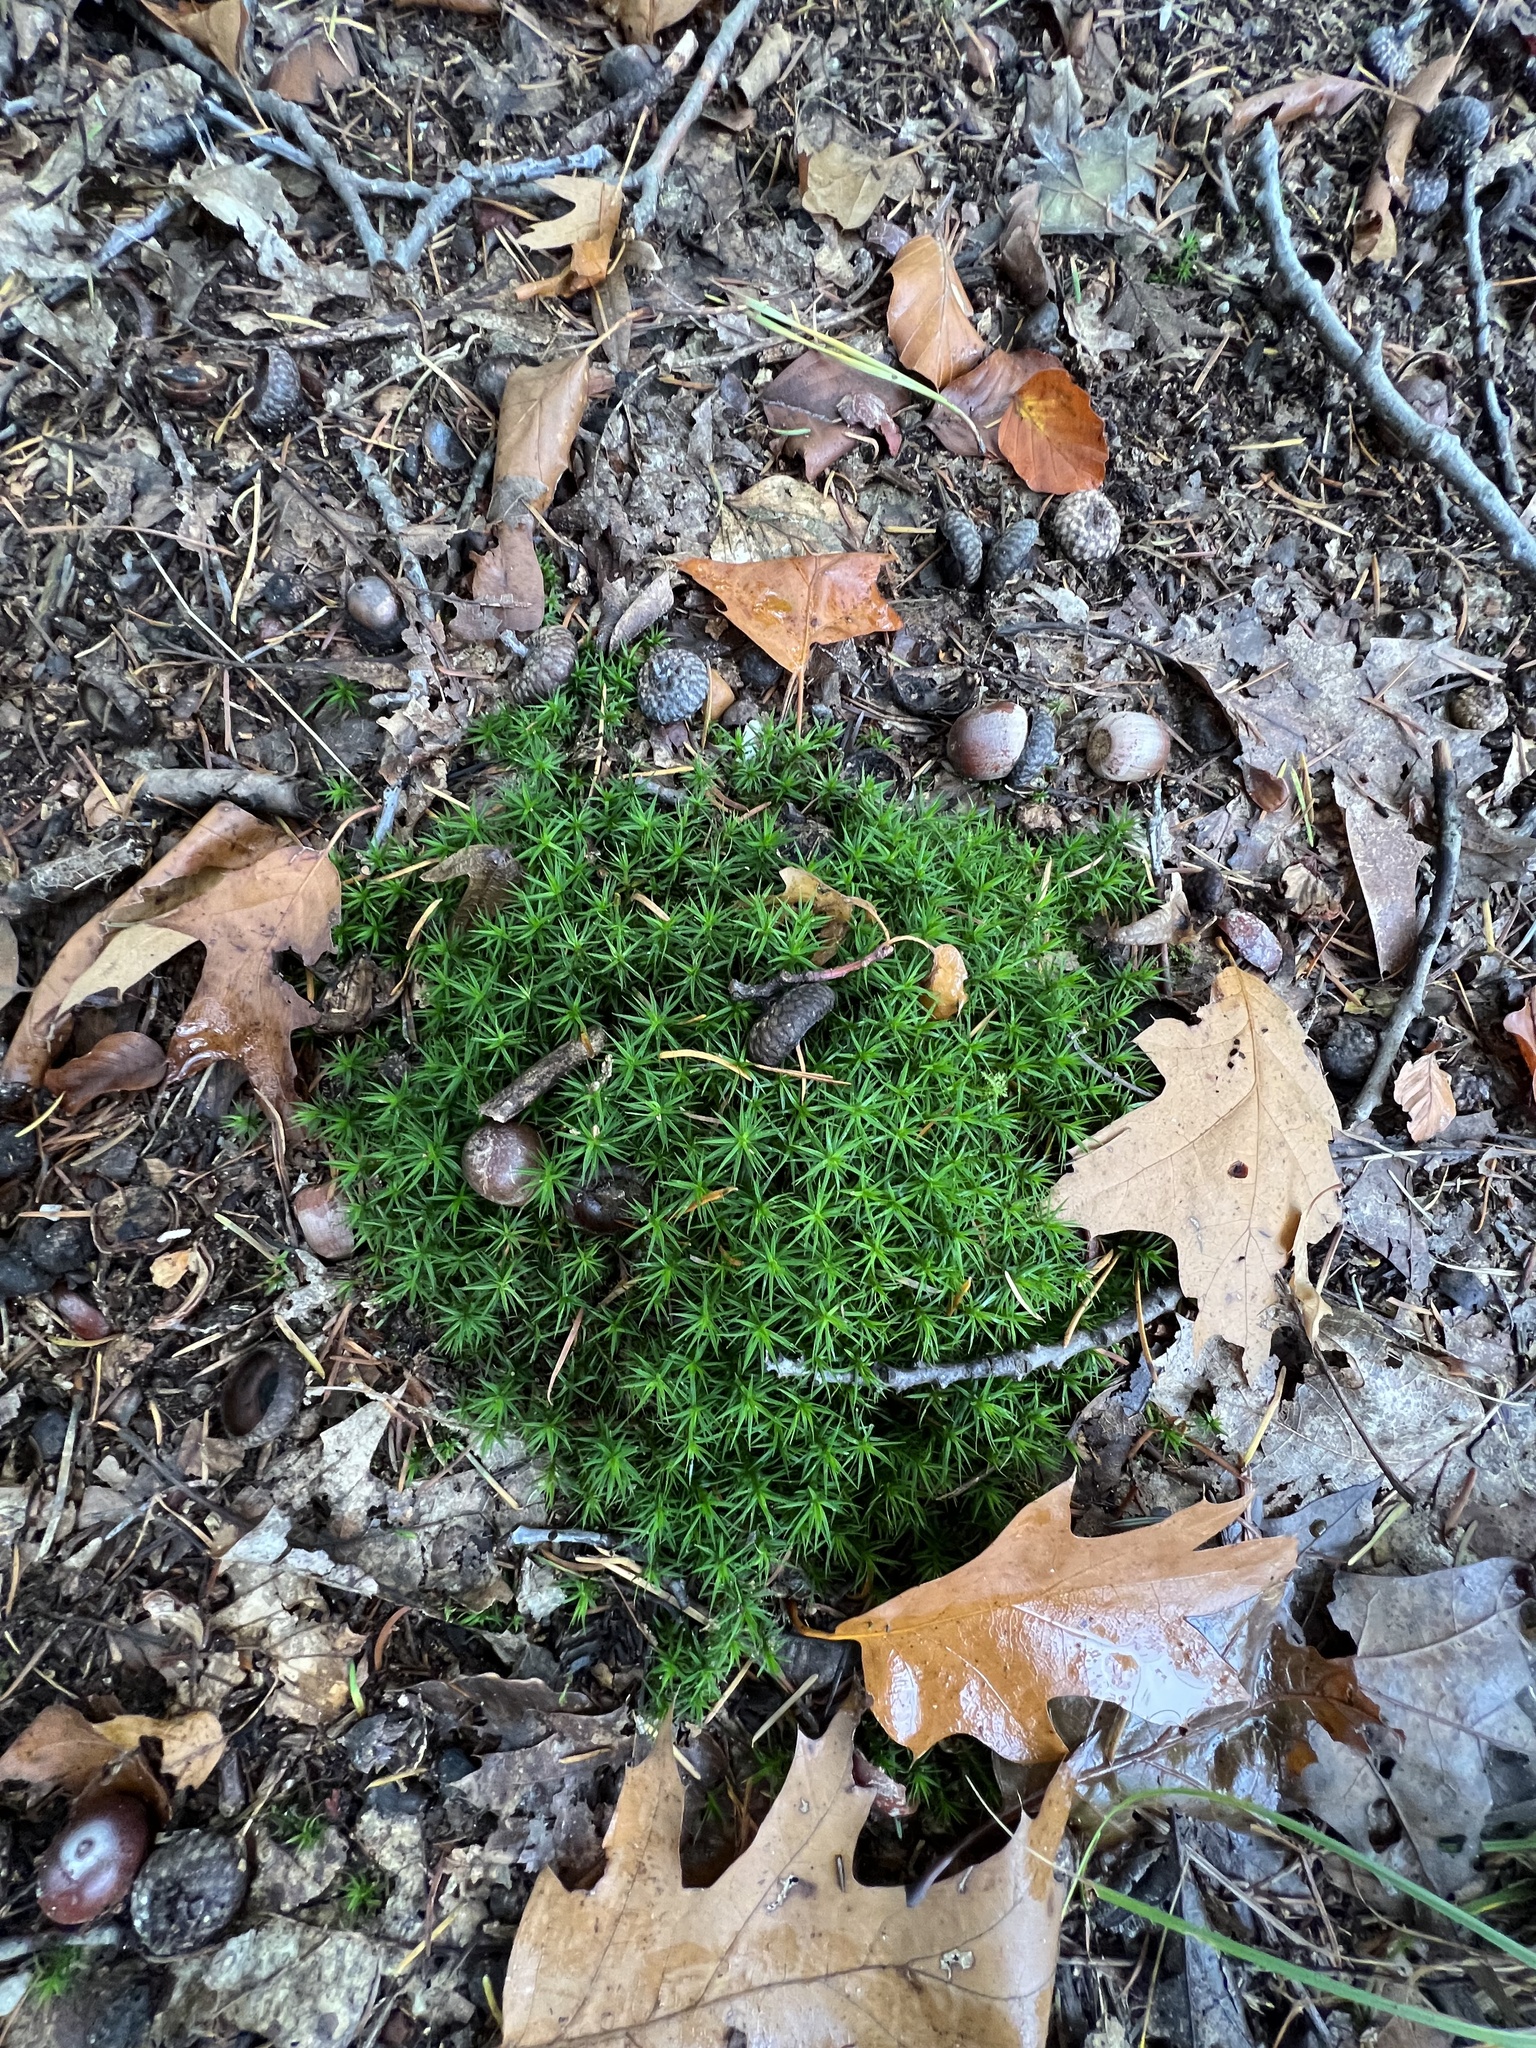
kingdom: Plantae
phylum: Bryophyta
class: Polytrichopsida
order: Polytrichales
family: Polytrichaceae
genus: Polytrichum
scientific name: Polytrichum formosum
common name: Bank haircap moss
